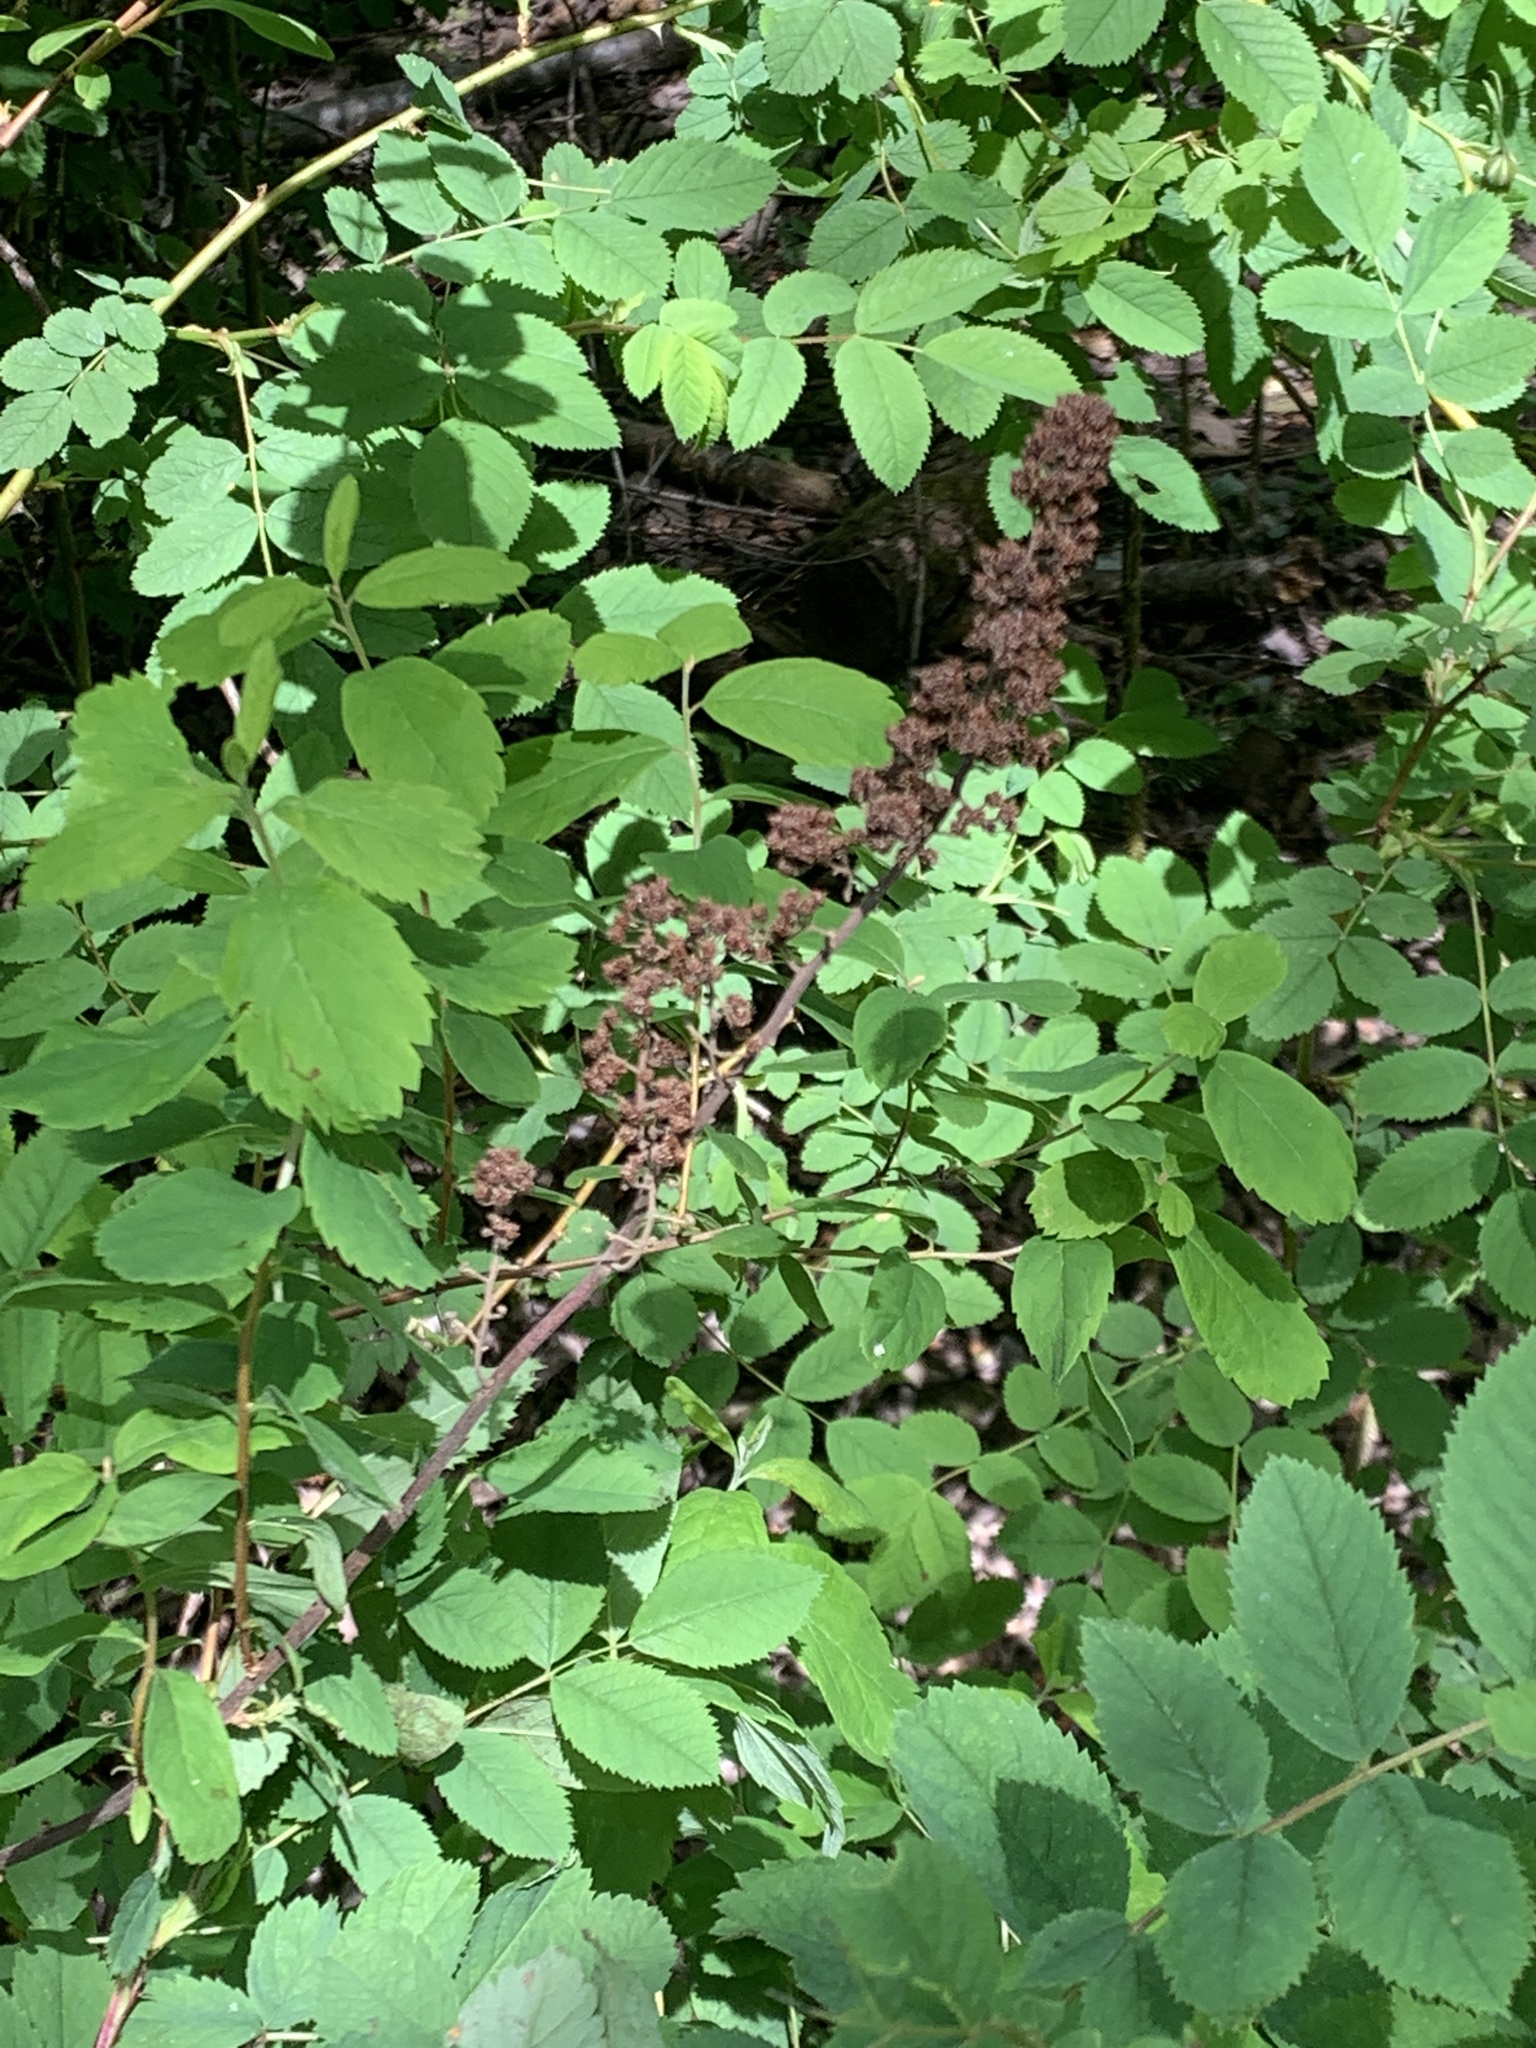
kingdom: Plantae
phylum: Tracheophyta
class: Magnoliopsida
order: Rosales
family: Rosaceae
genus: Spiraea
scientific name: Spiraea douglasii
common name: Steeplebush
